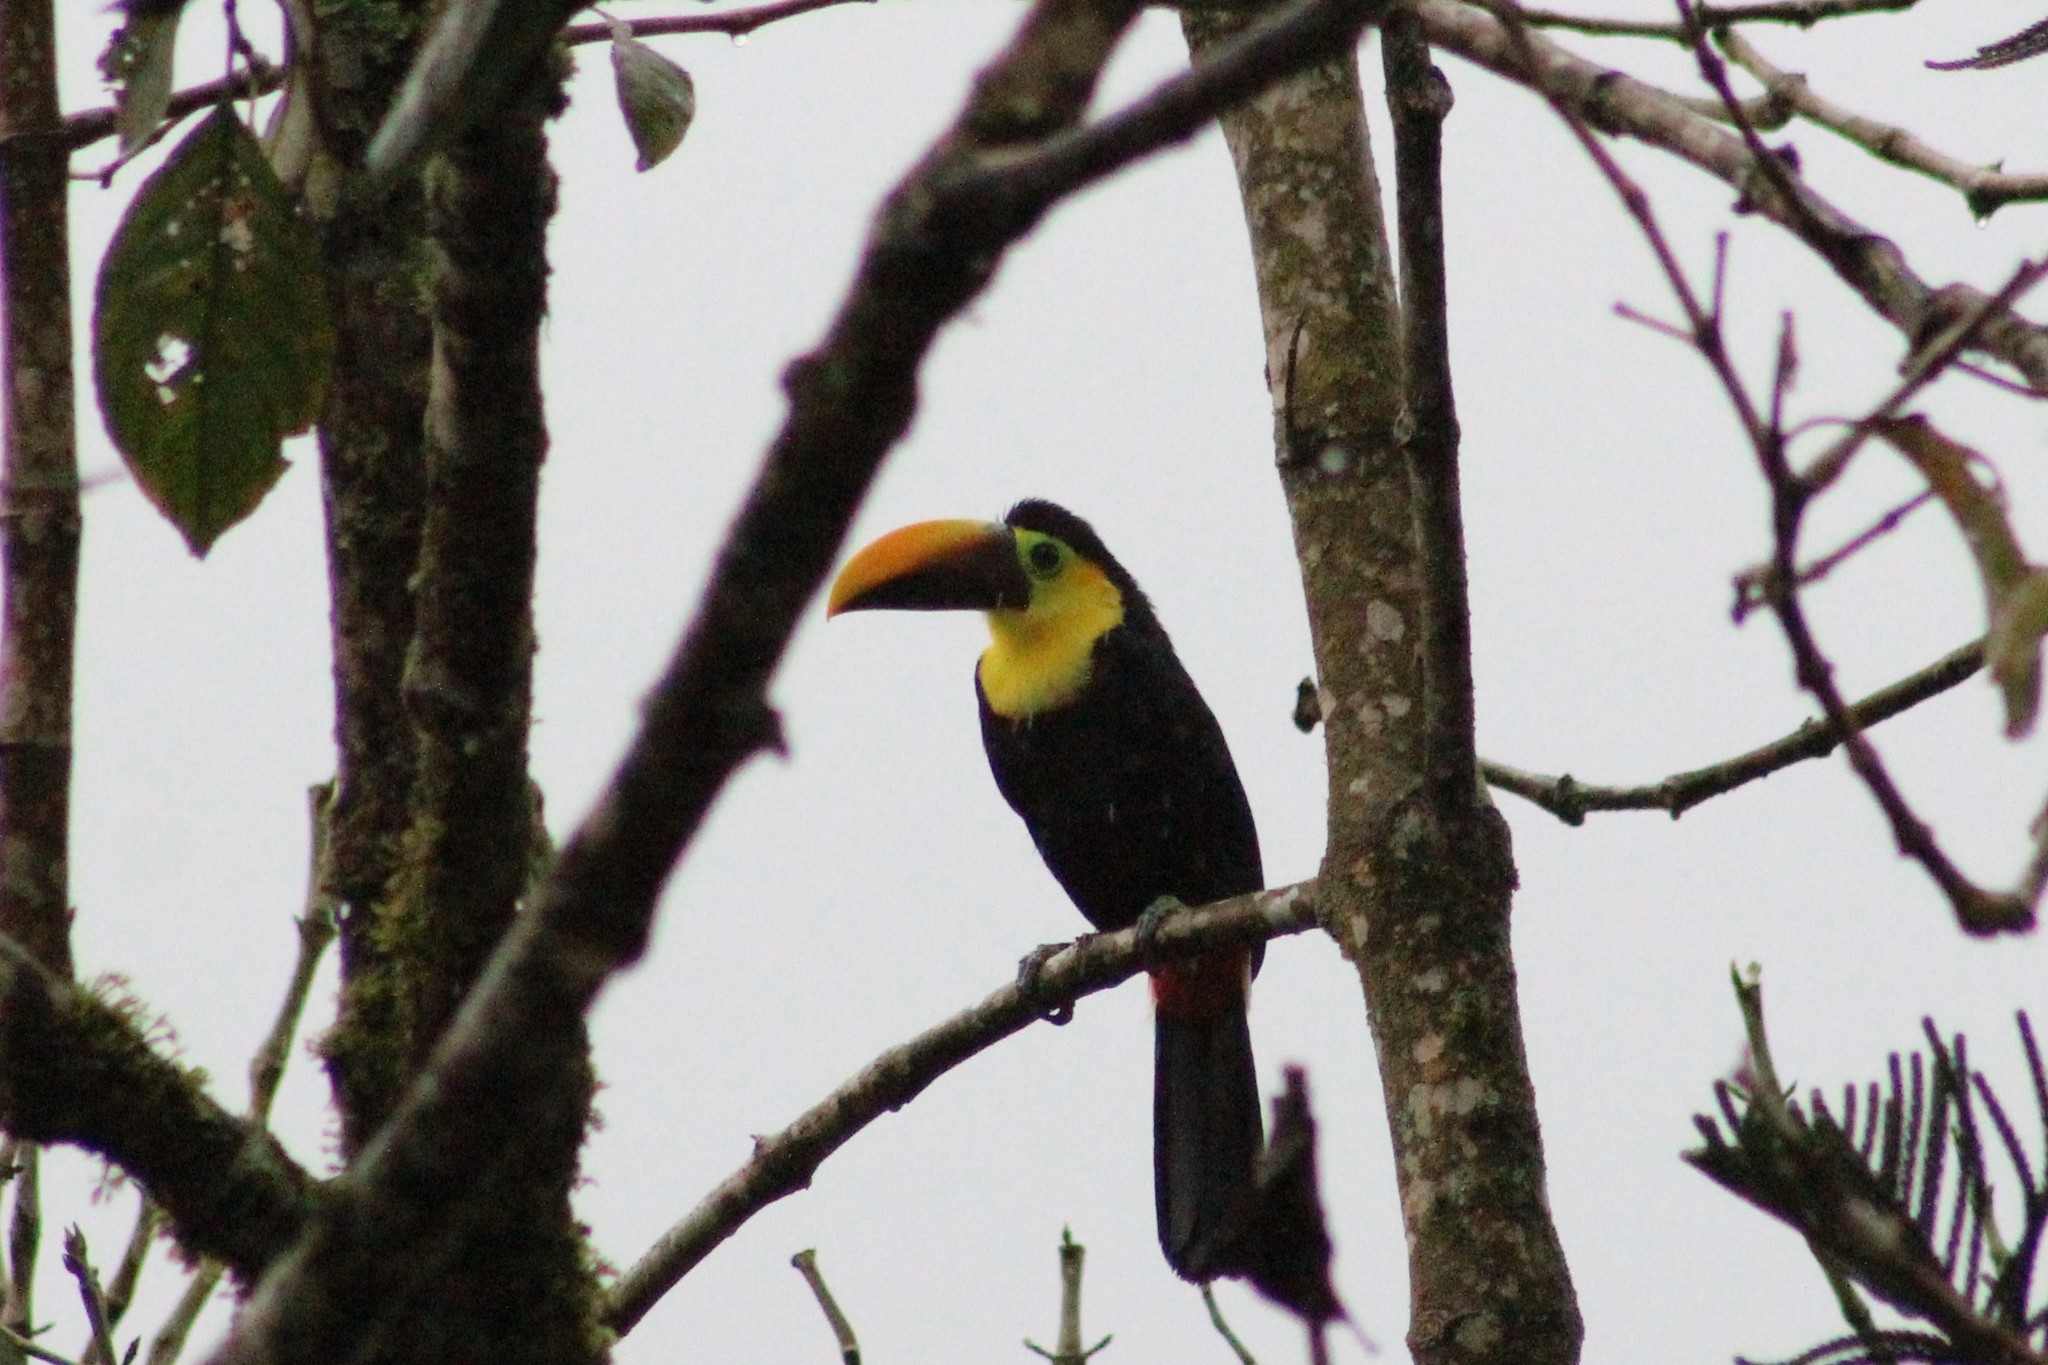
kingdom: Animalia
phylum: Chordata
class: Aves
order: Piciformes
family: Ramphastidae
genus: Ramphastos
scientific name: Ramphastos brevis
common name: Choco toucan
